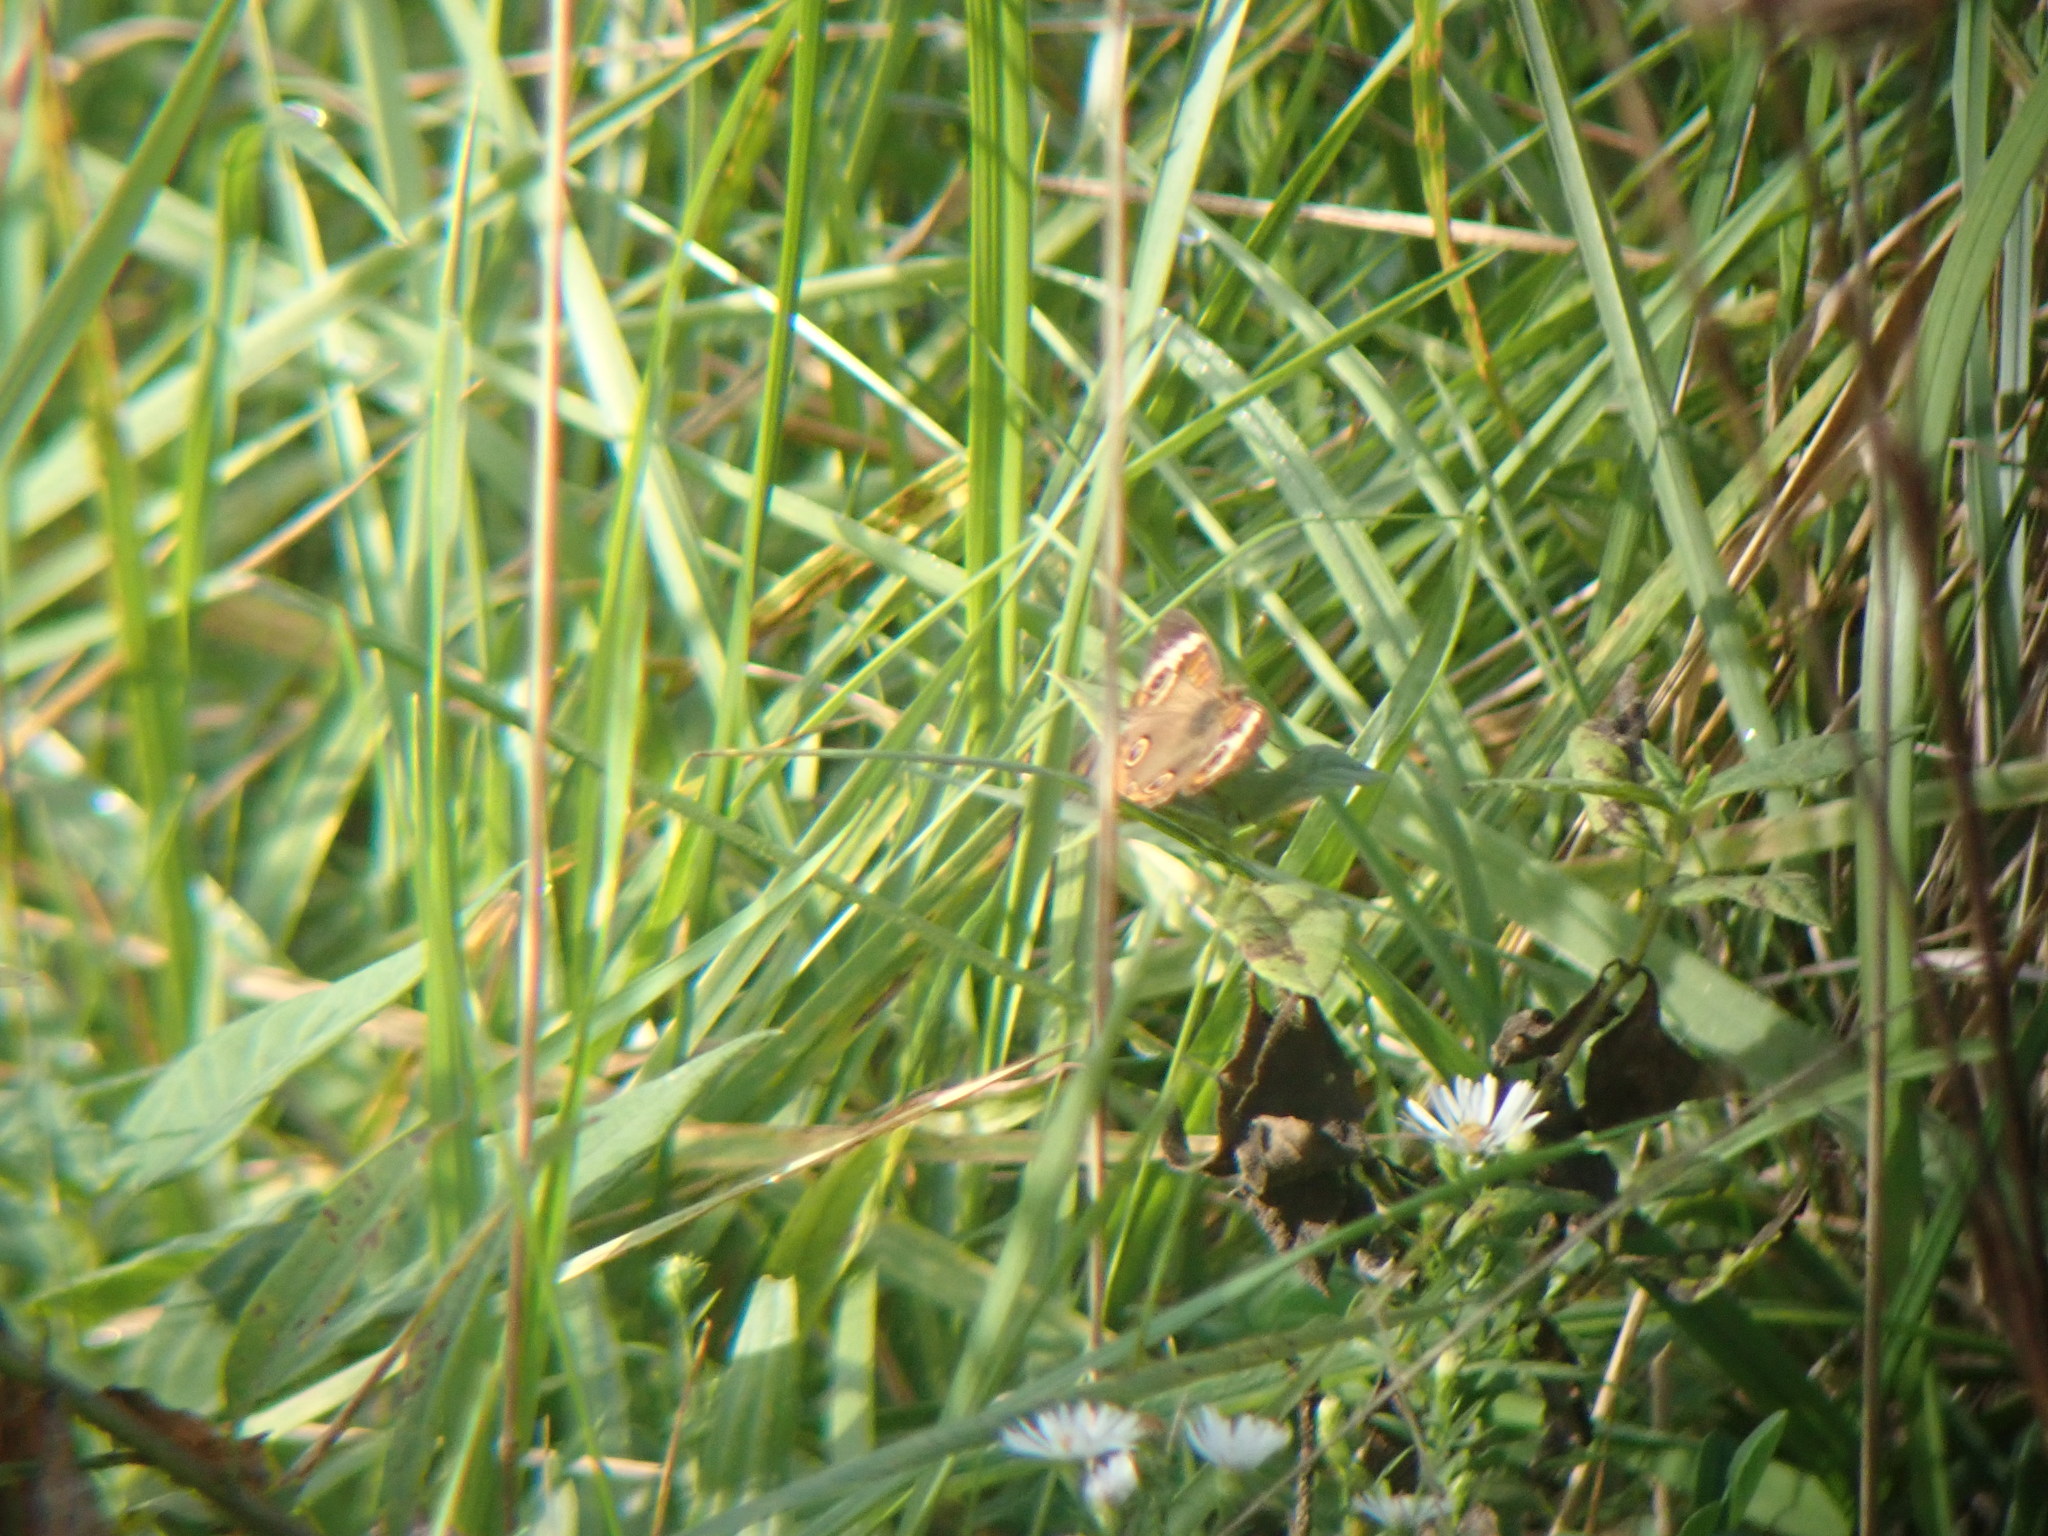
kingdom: Animalia
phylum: Arthropoda
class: Insecta
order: Lepidoptera
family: Nymphalidae
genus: Junonia
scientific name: Junonia coenia
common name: Common buckeye
